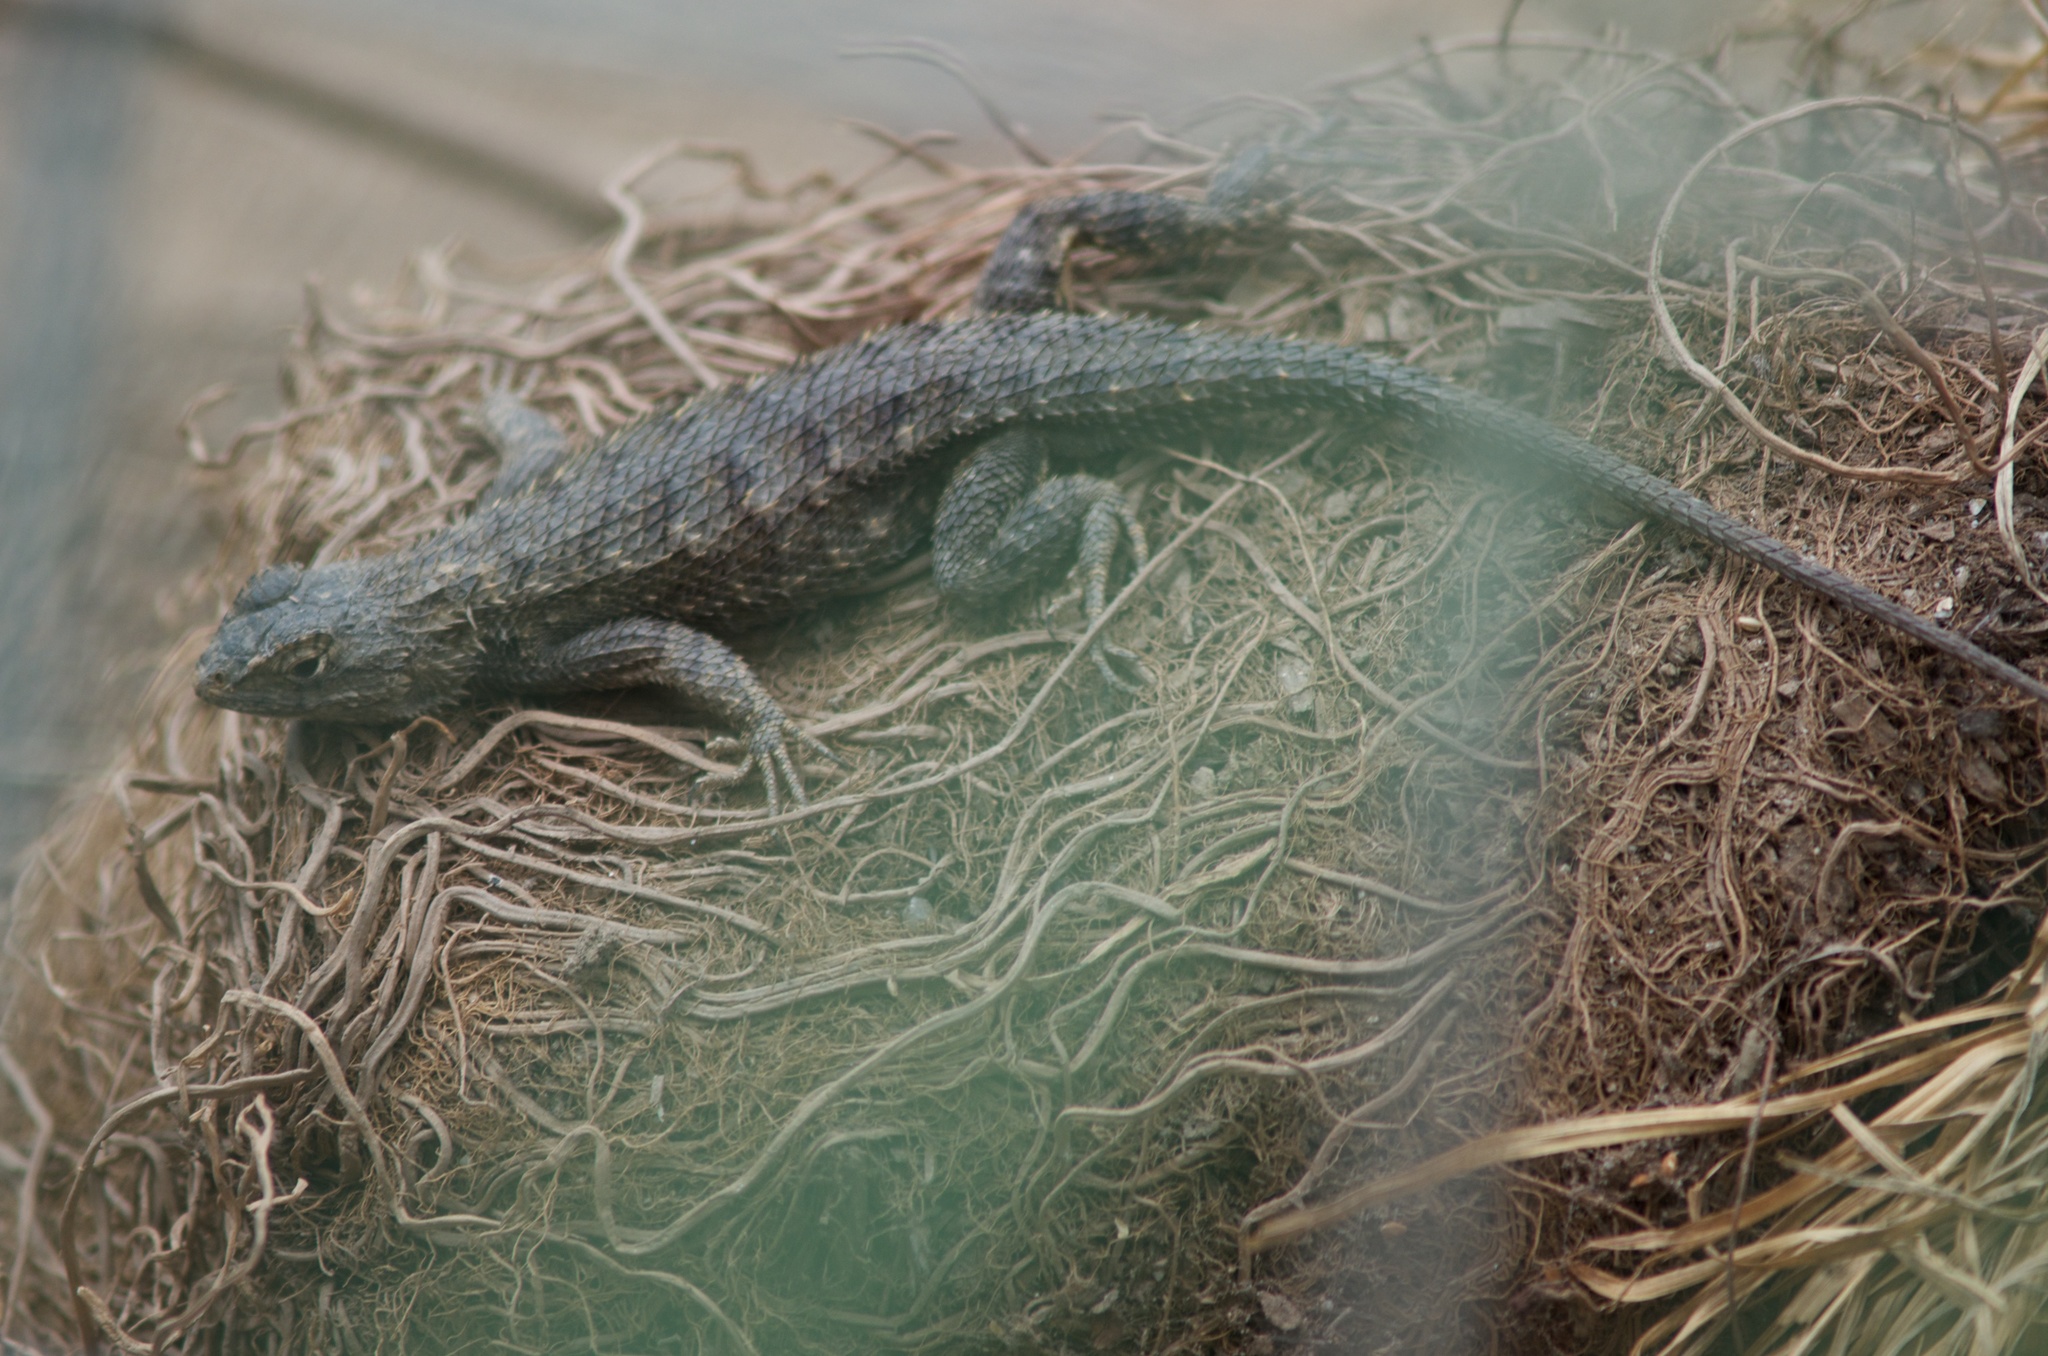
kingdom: Animalia
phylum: Chordata
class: Squamata
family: Phrynosomatidae
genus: Sceloporus
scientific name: Sceloporus occidentalis
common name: Western fence lizard
